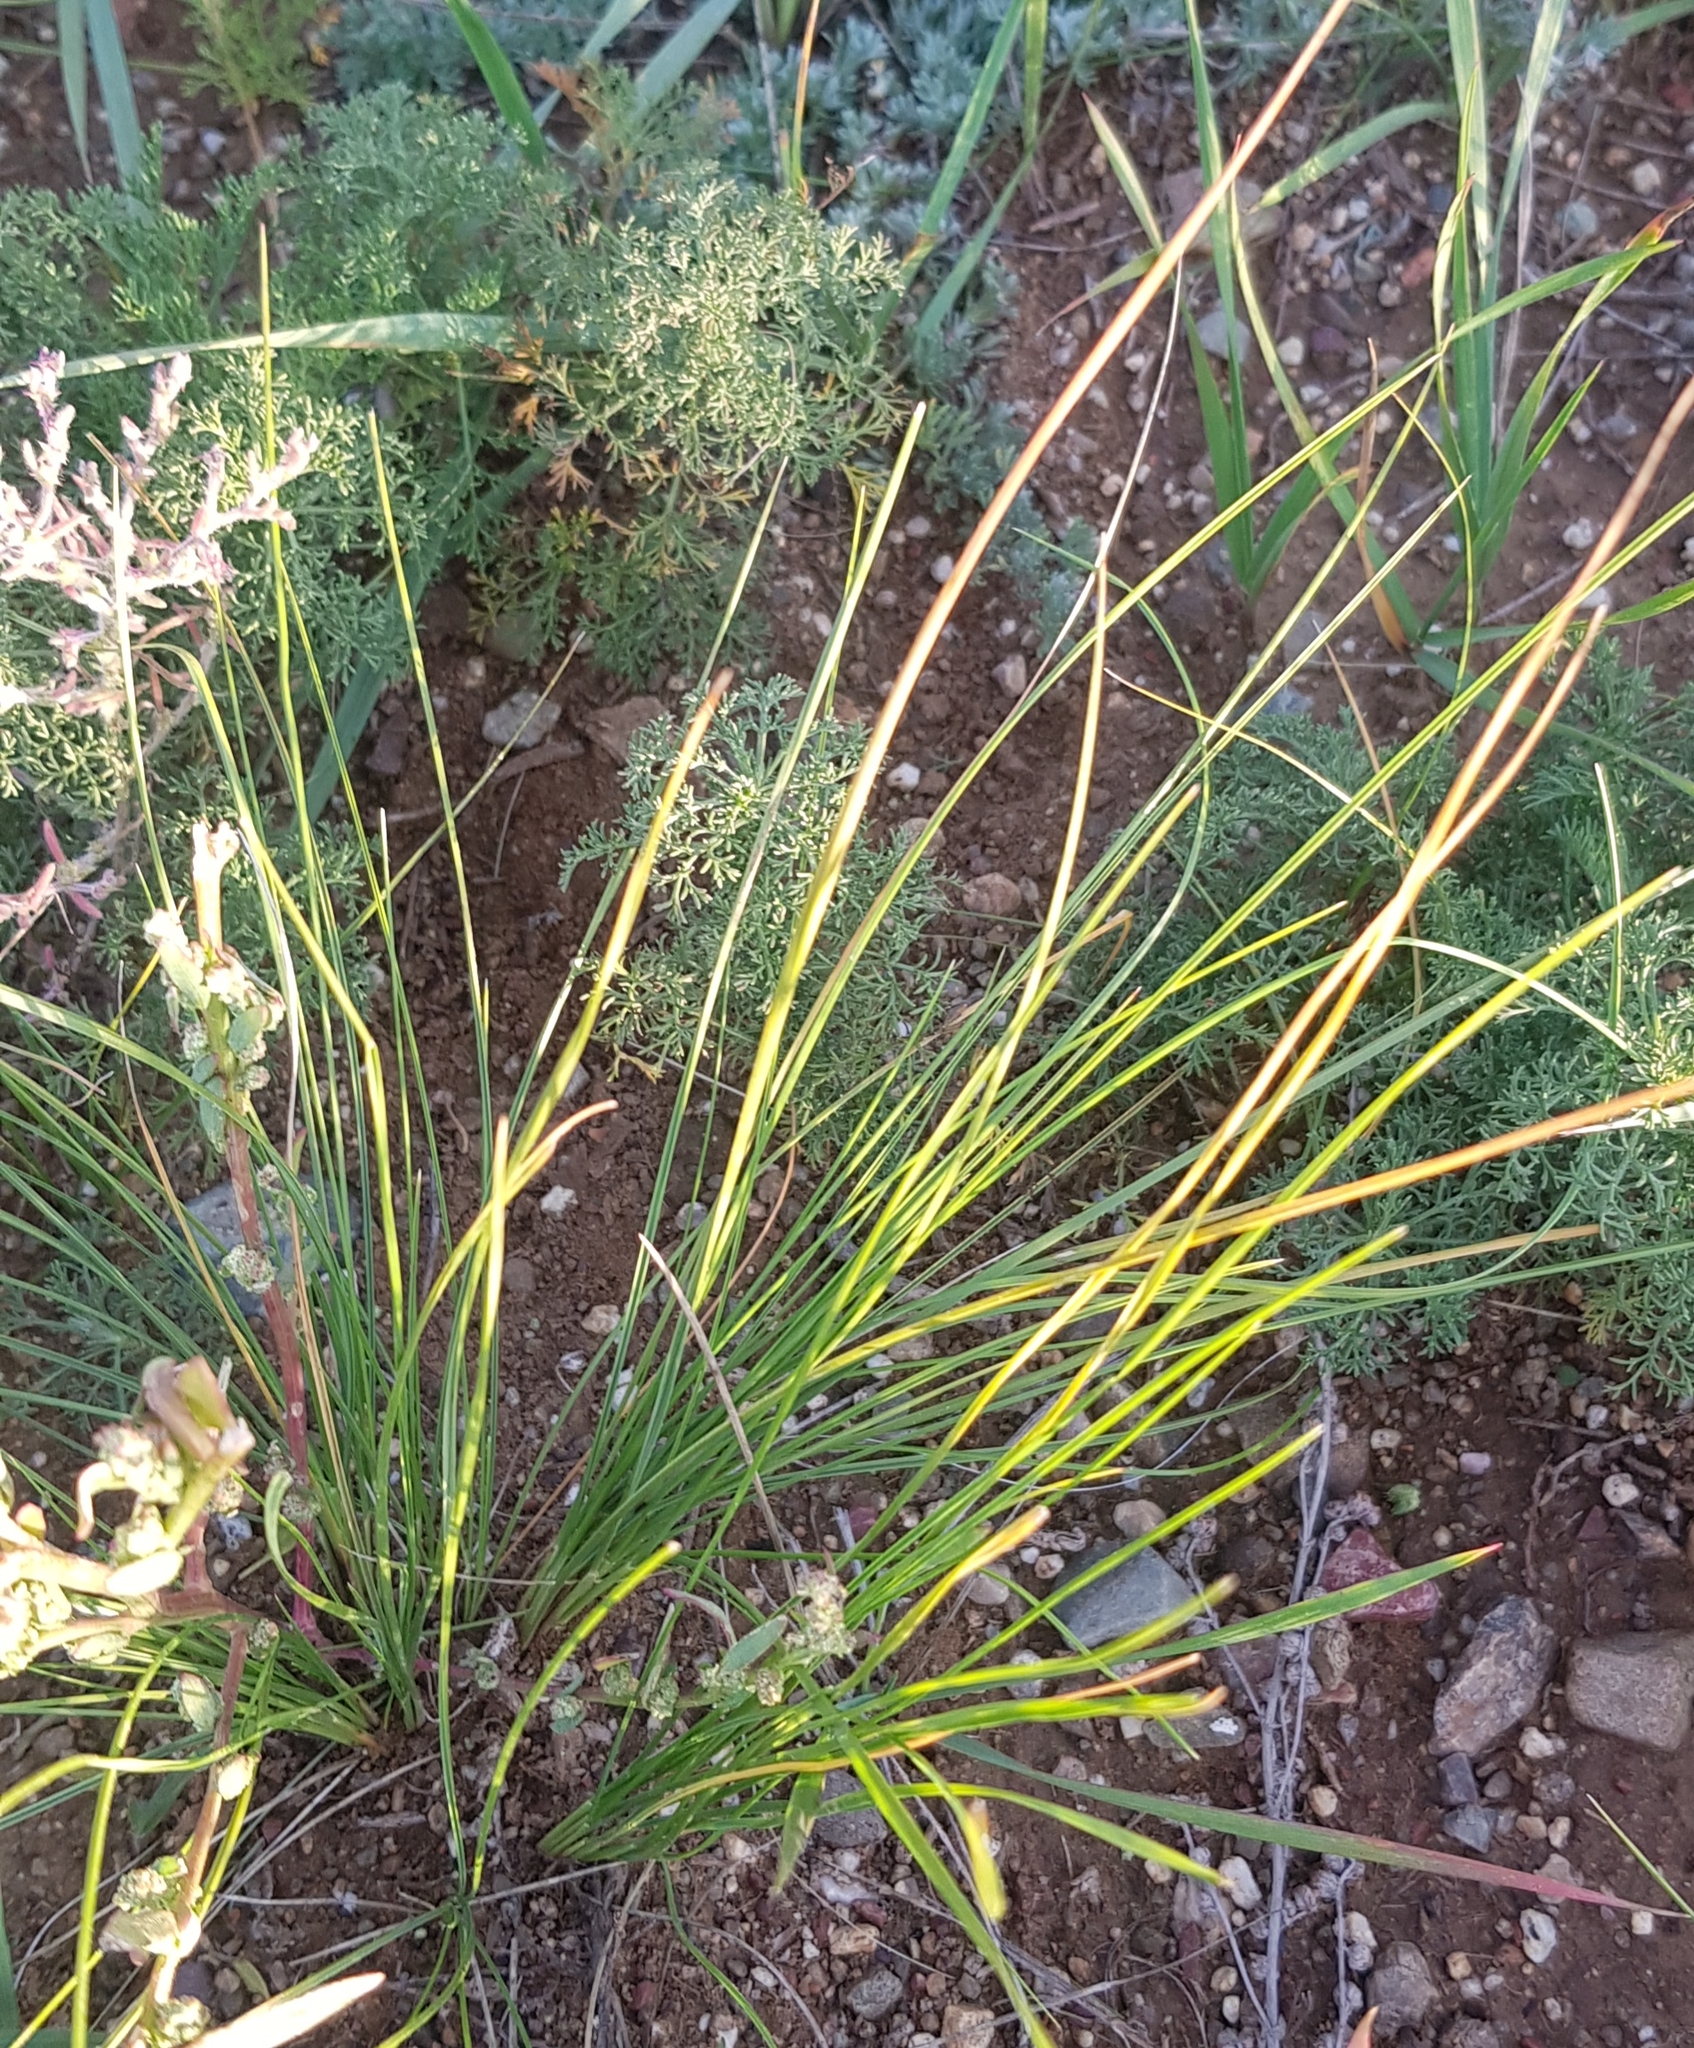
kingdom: Plantae
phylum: Tracheophyta
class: Liliopsida
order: Poales
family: Poaceae
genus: Stipa
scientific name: Stipa krylovii
